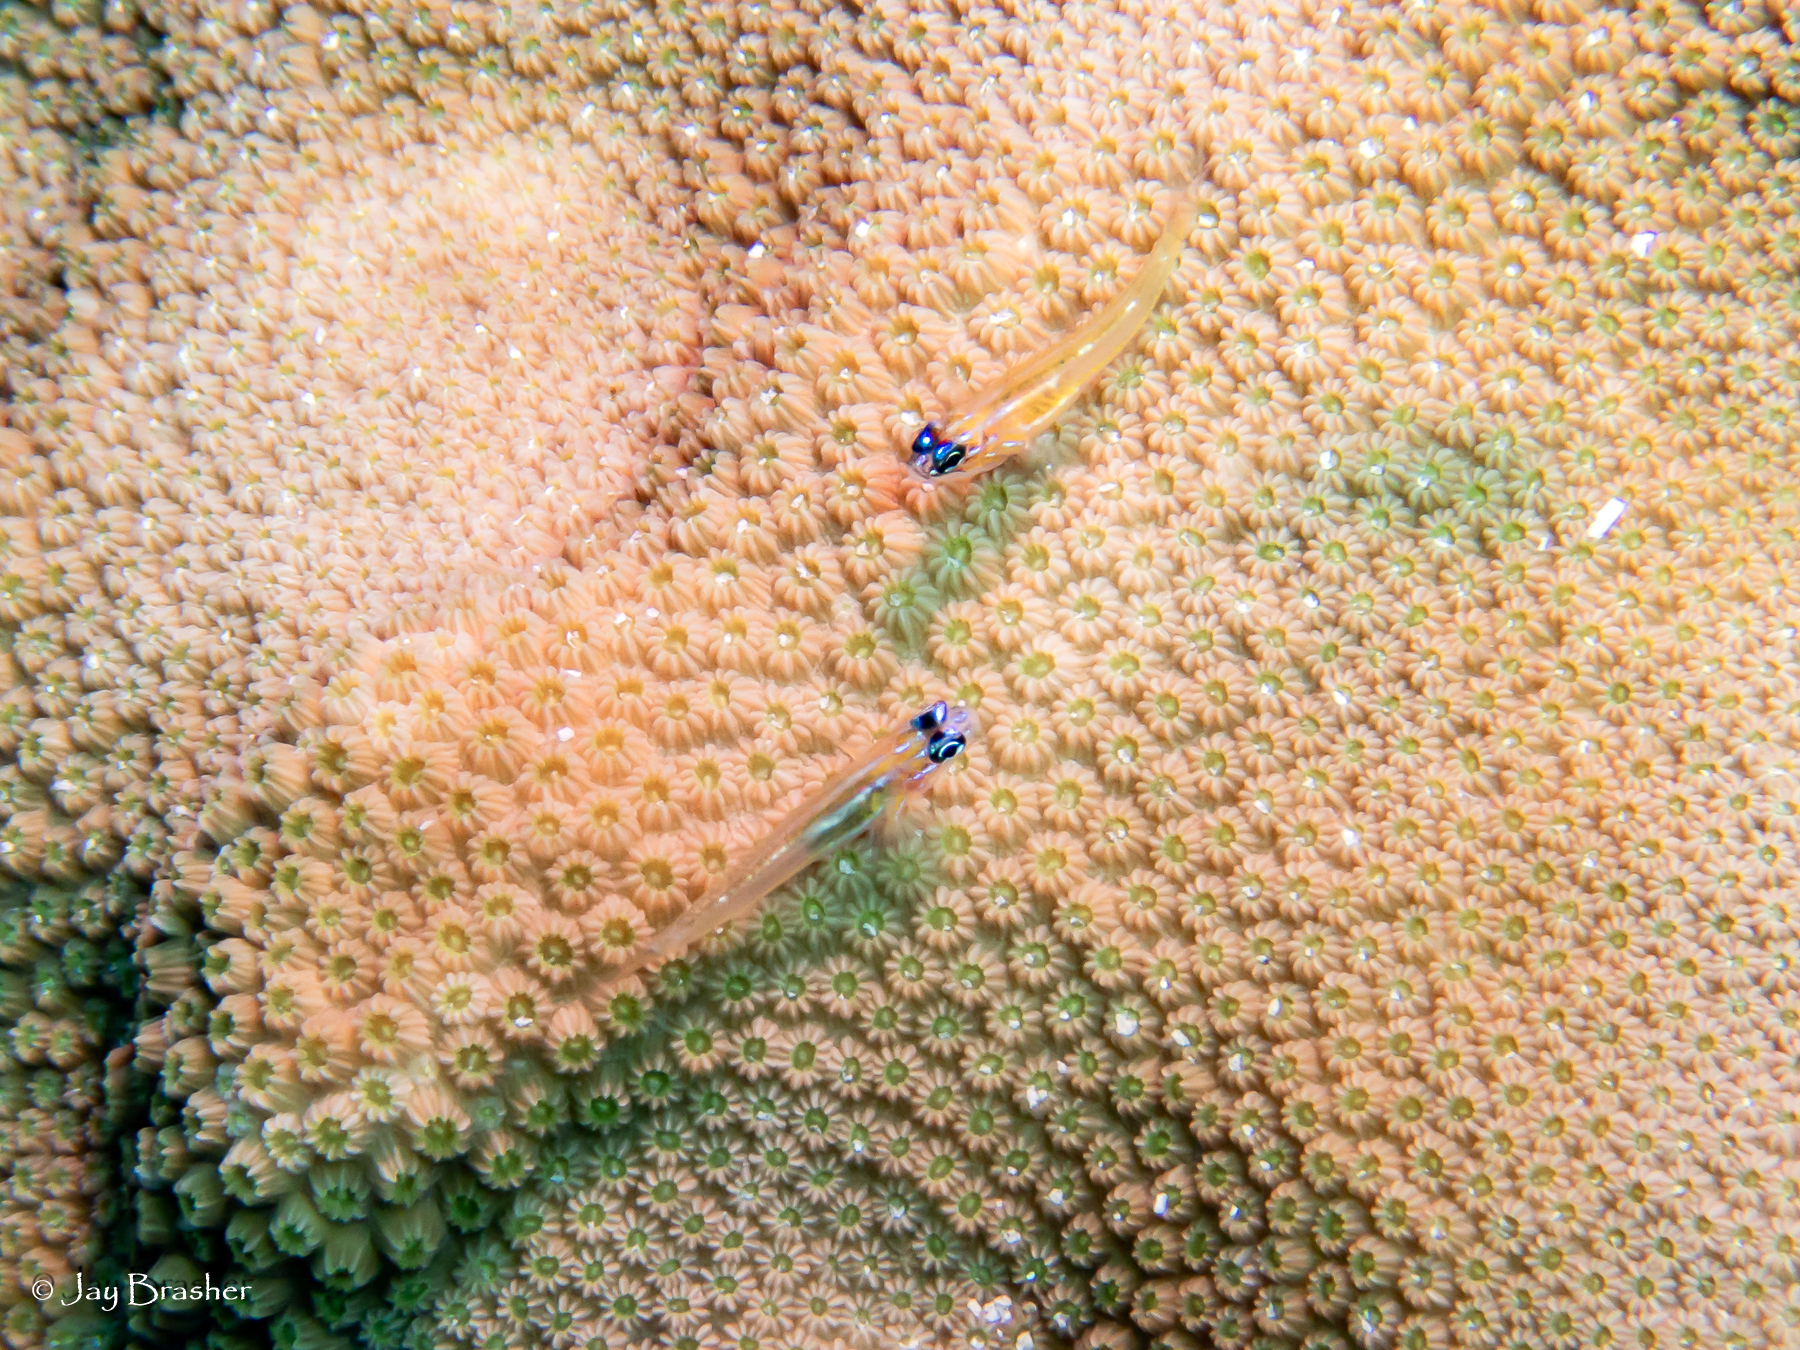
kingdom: Animalia
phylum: Chordata
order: Perciformes
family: Gobiidae
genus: Coryphopterus
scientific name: Coryphopterus lipernes
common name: Peppermint goby
